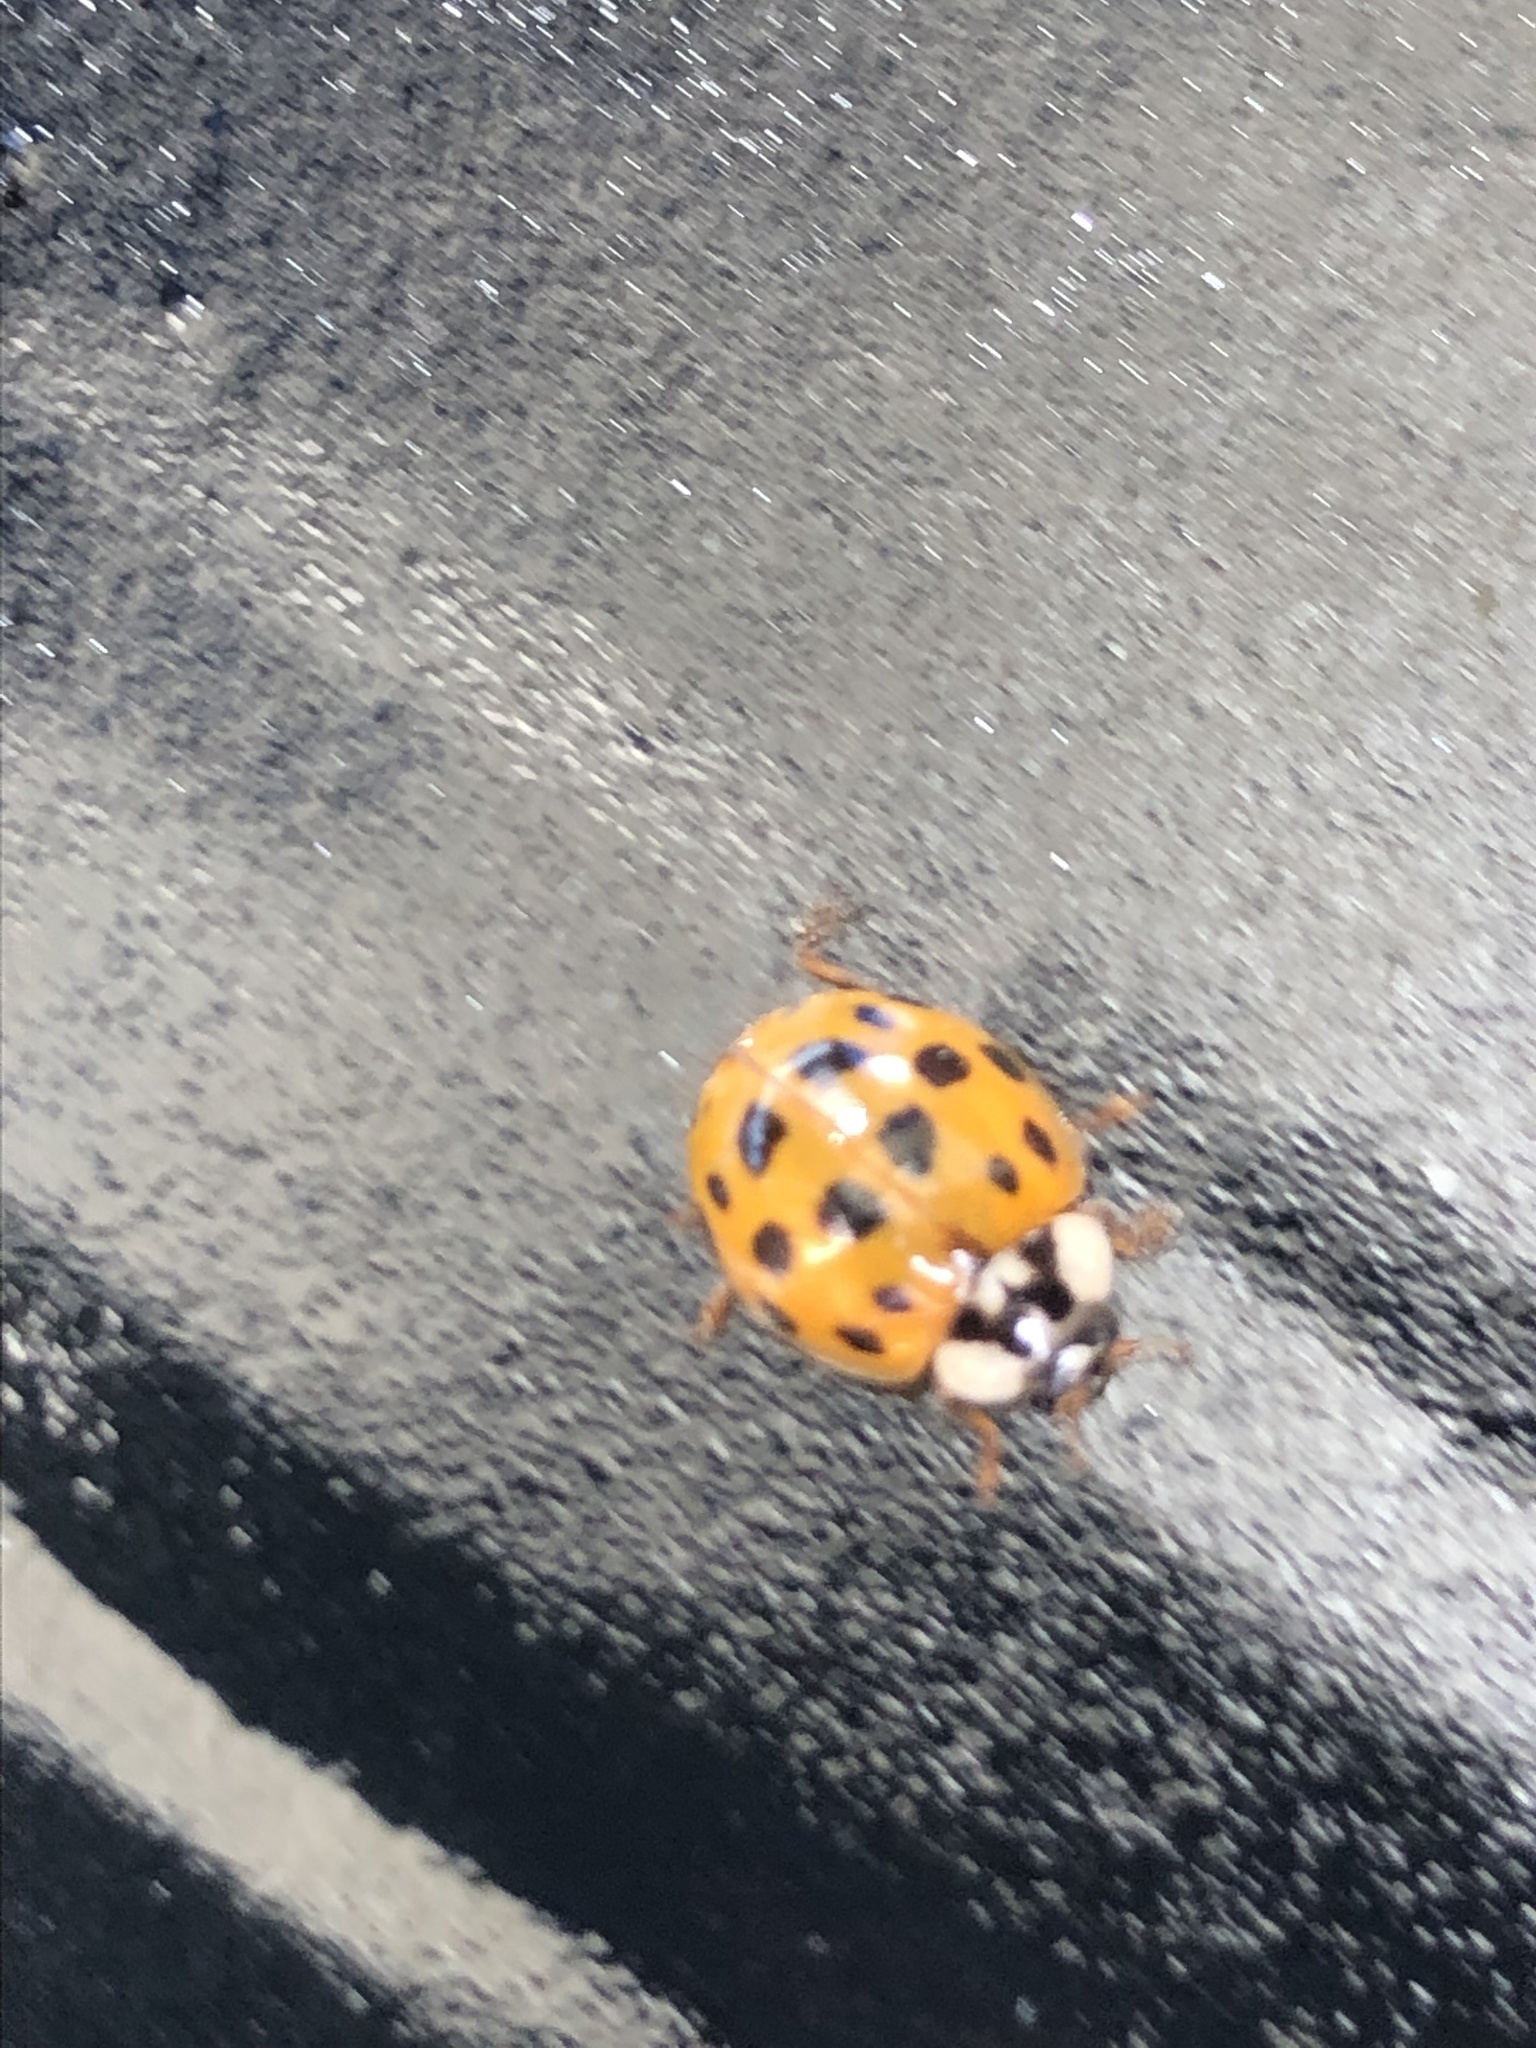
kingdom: Animalia
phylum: Arthropoda
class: Insecta
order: Coleoptera
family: Coccinellidae
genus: Harmonia
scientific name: Harmonia axyridis
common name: Harlequin ladybird
